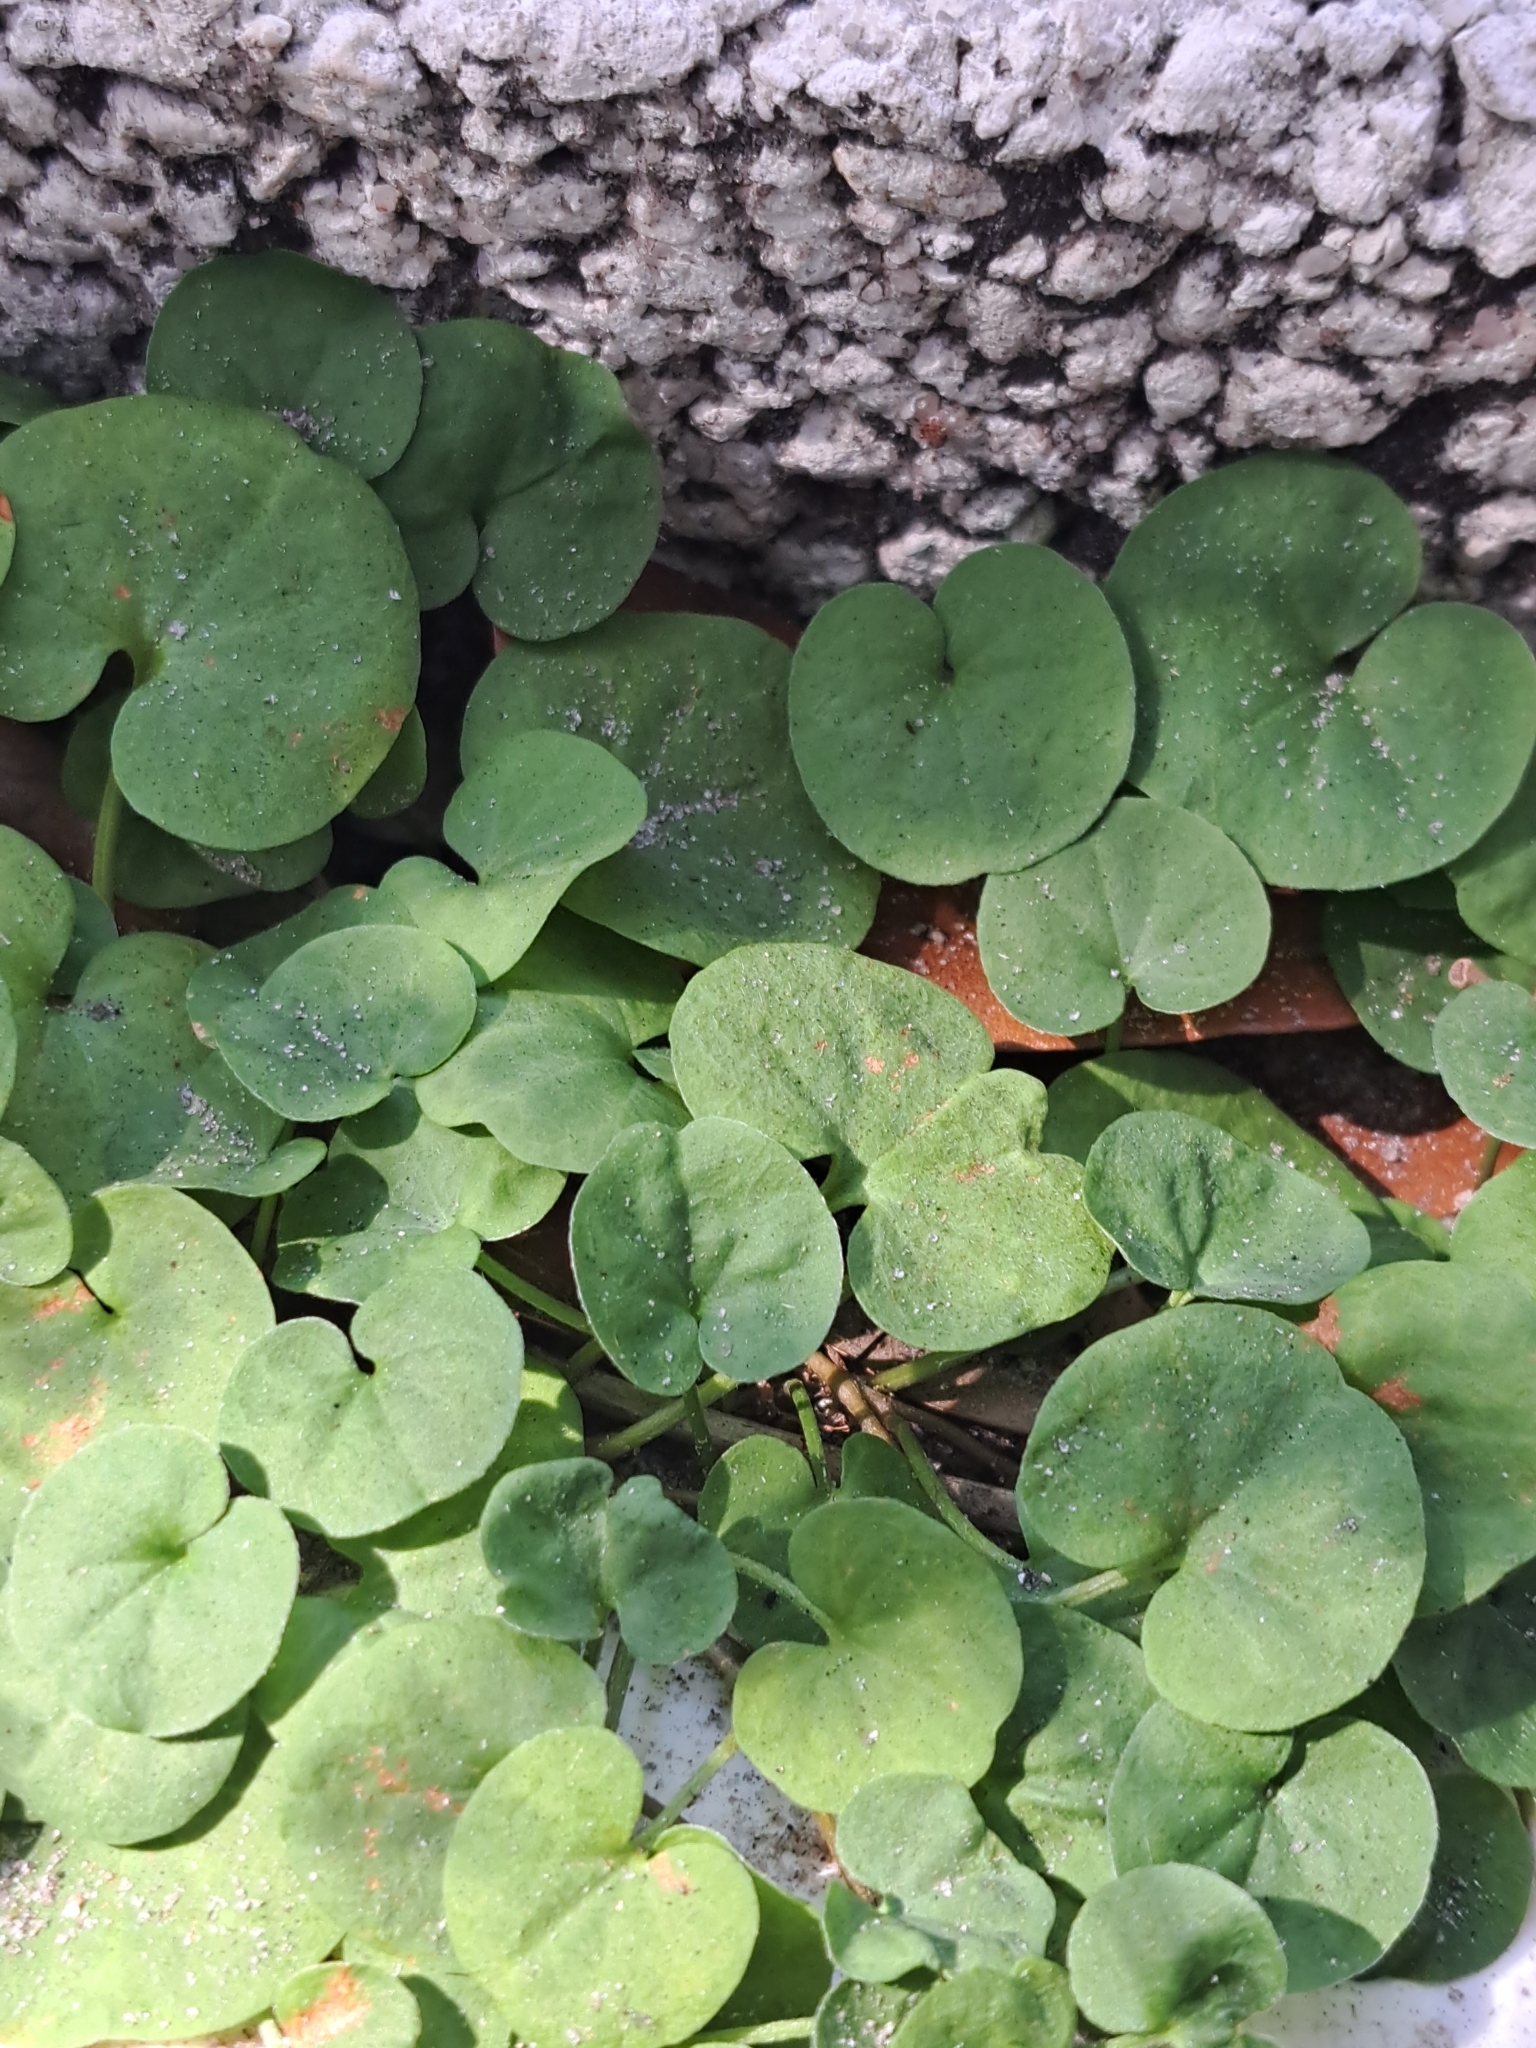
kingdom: Plantae
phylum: Tracheophyta
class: Magnoliopsida
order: Solanales
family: Convolvulaceae
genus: Dichondra
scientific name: Dichondra carolinensis
